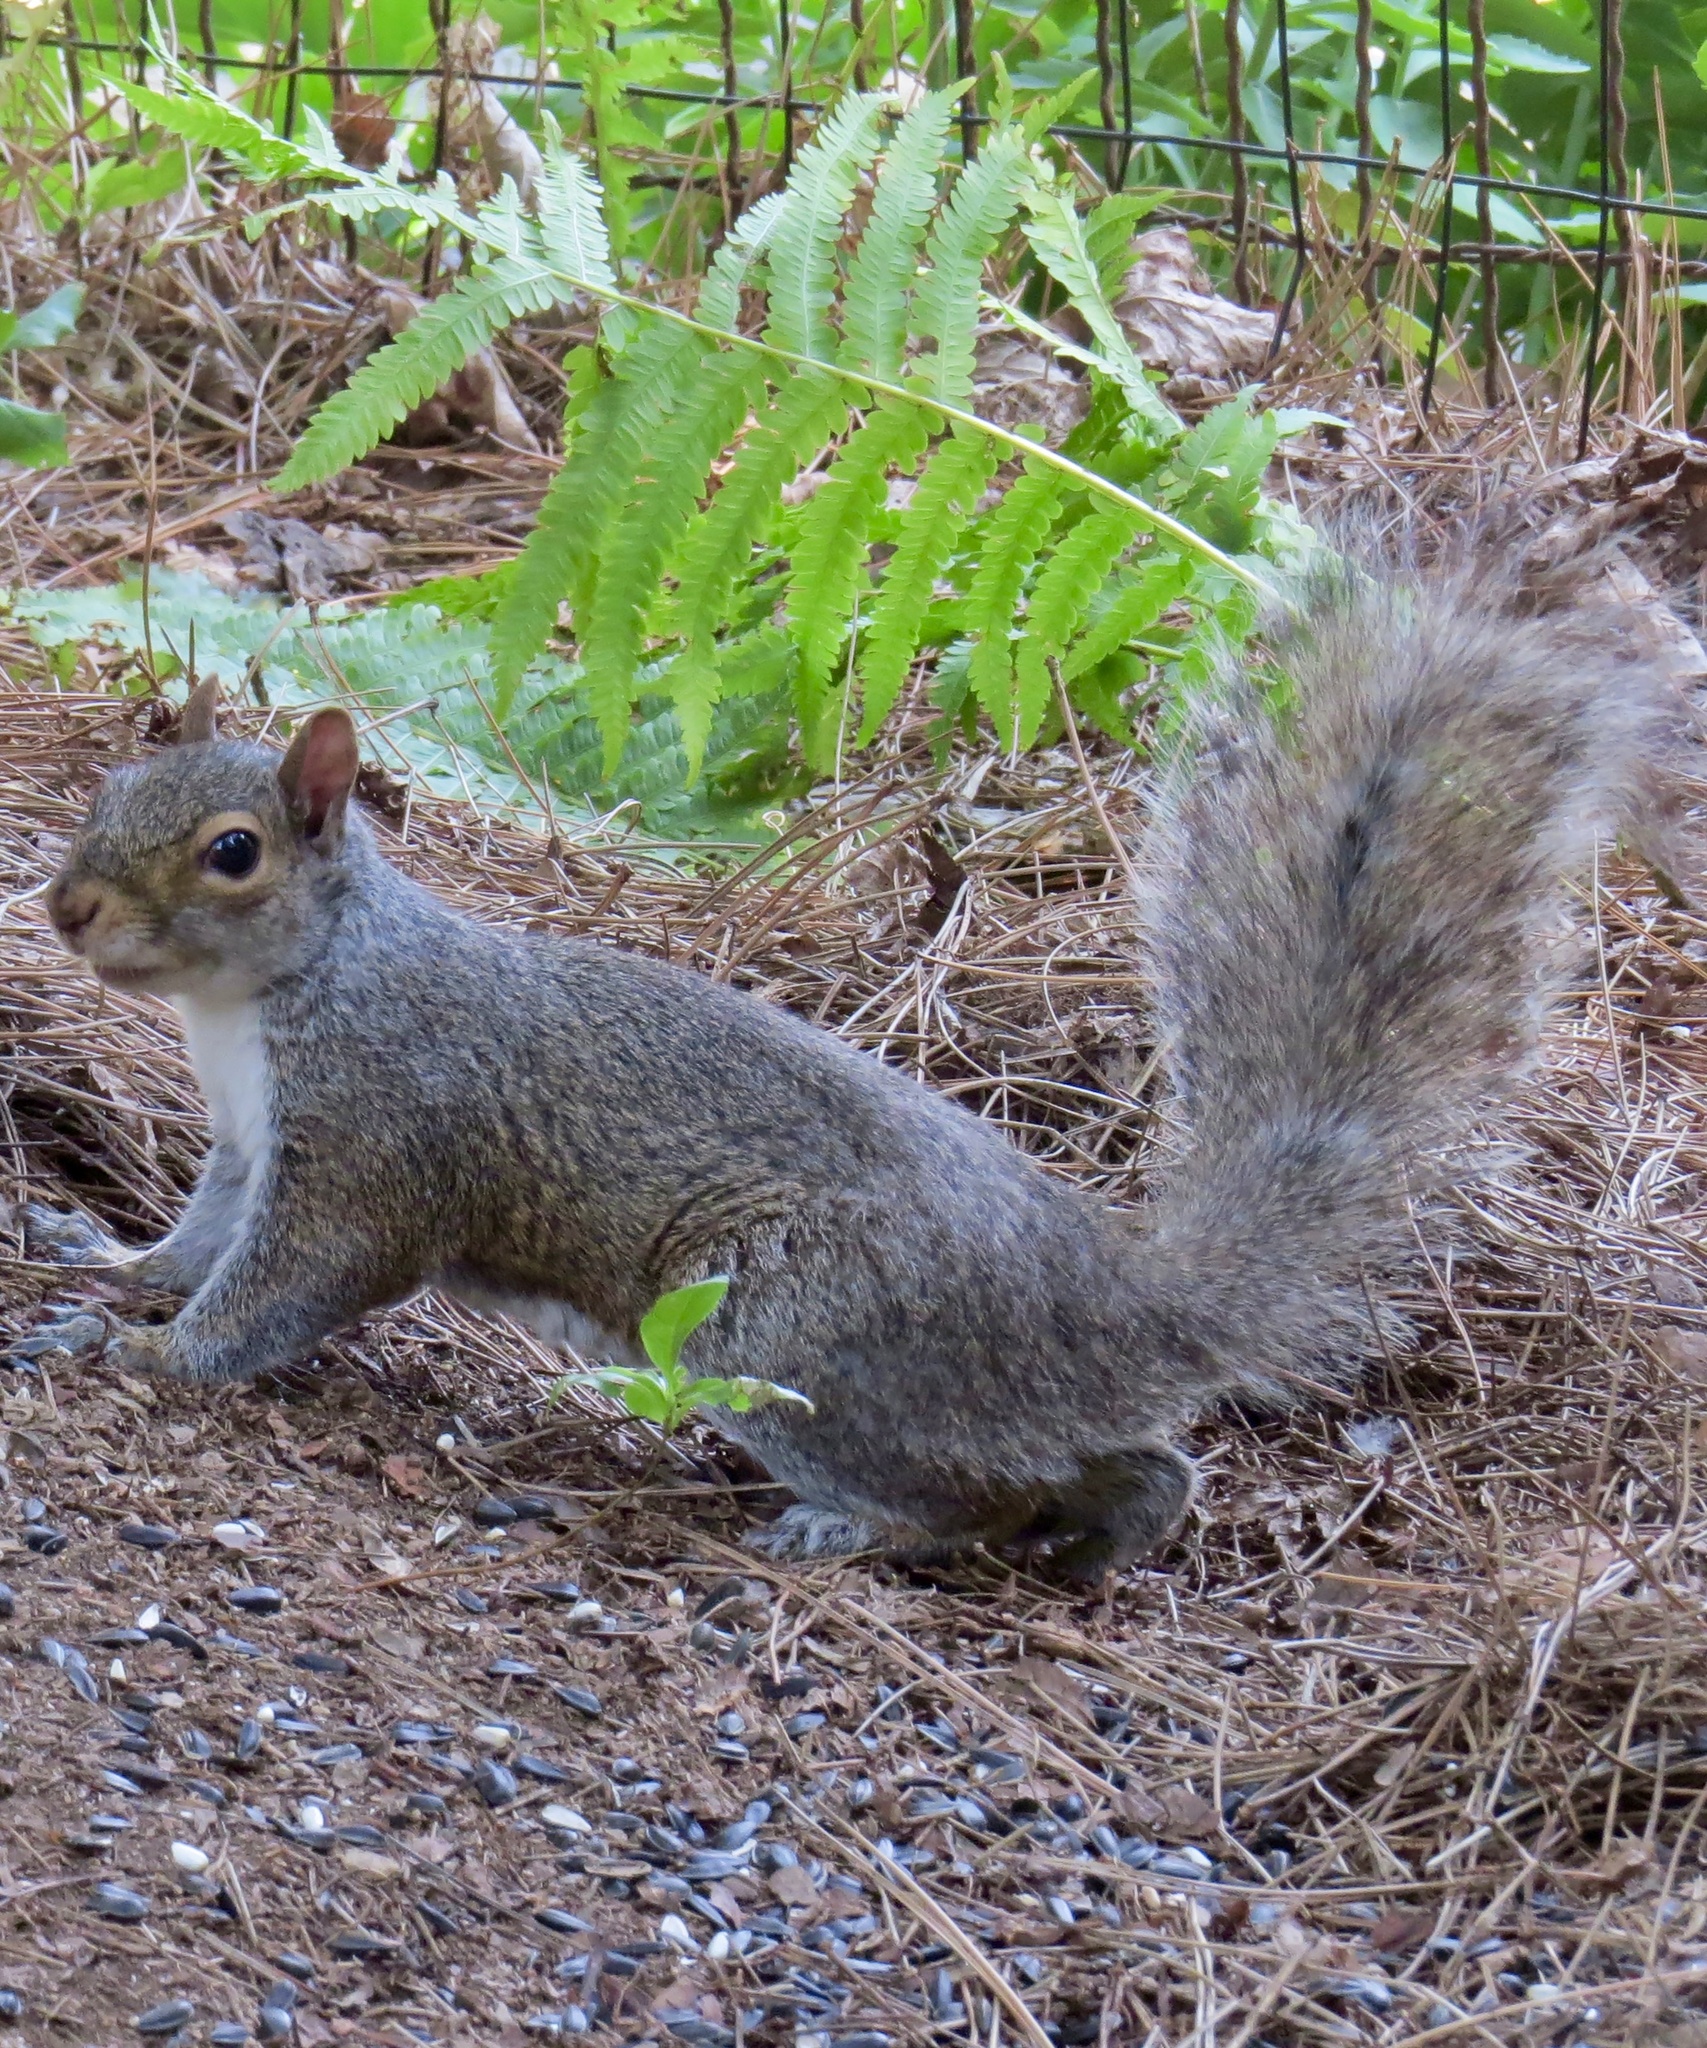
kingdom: Animalia
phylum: Chordata
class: Mammalia
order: Rodentia
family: Sciuridae
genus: Sciurus
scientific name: Sciurus carolinensis
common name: Eastern gray squirrel
